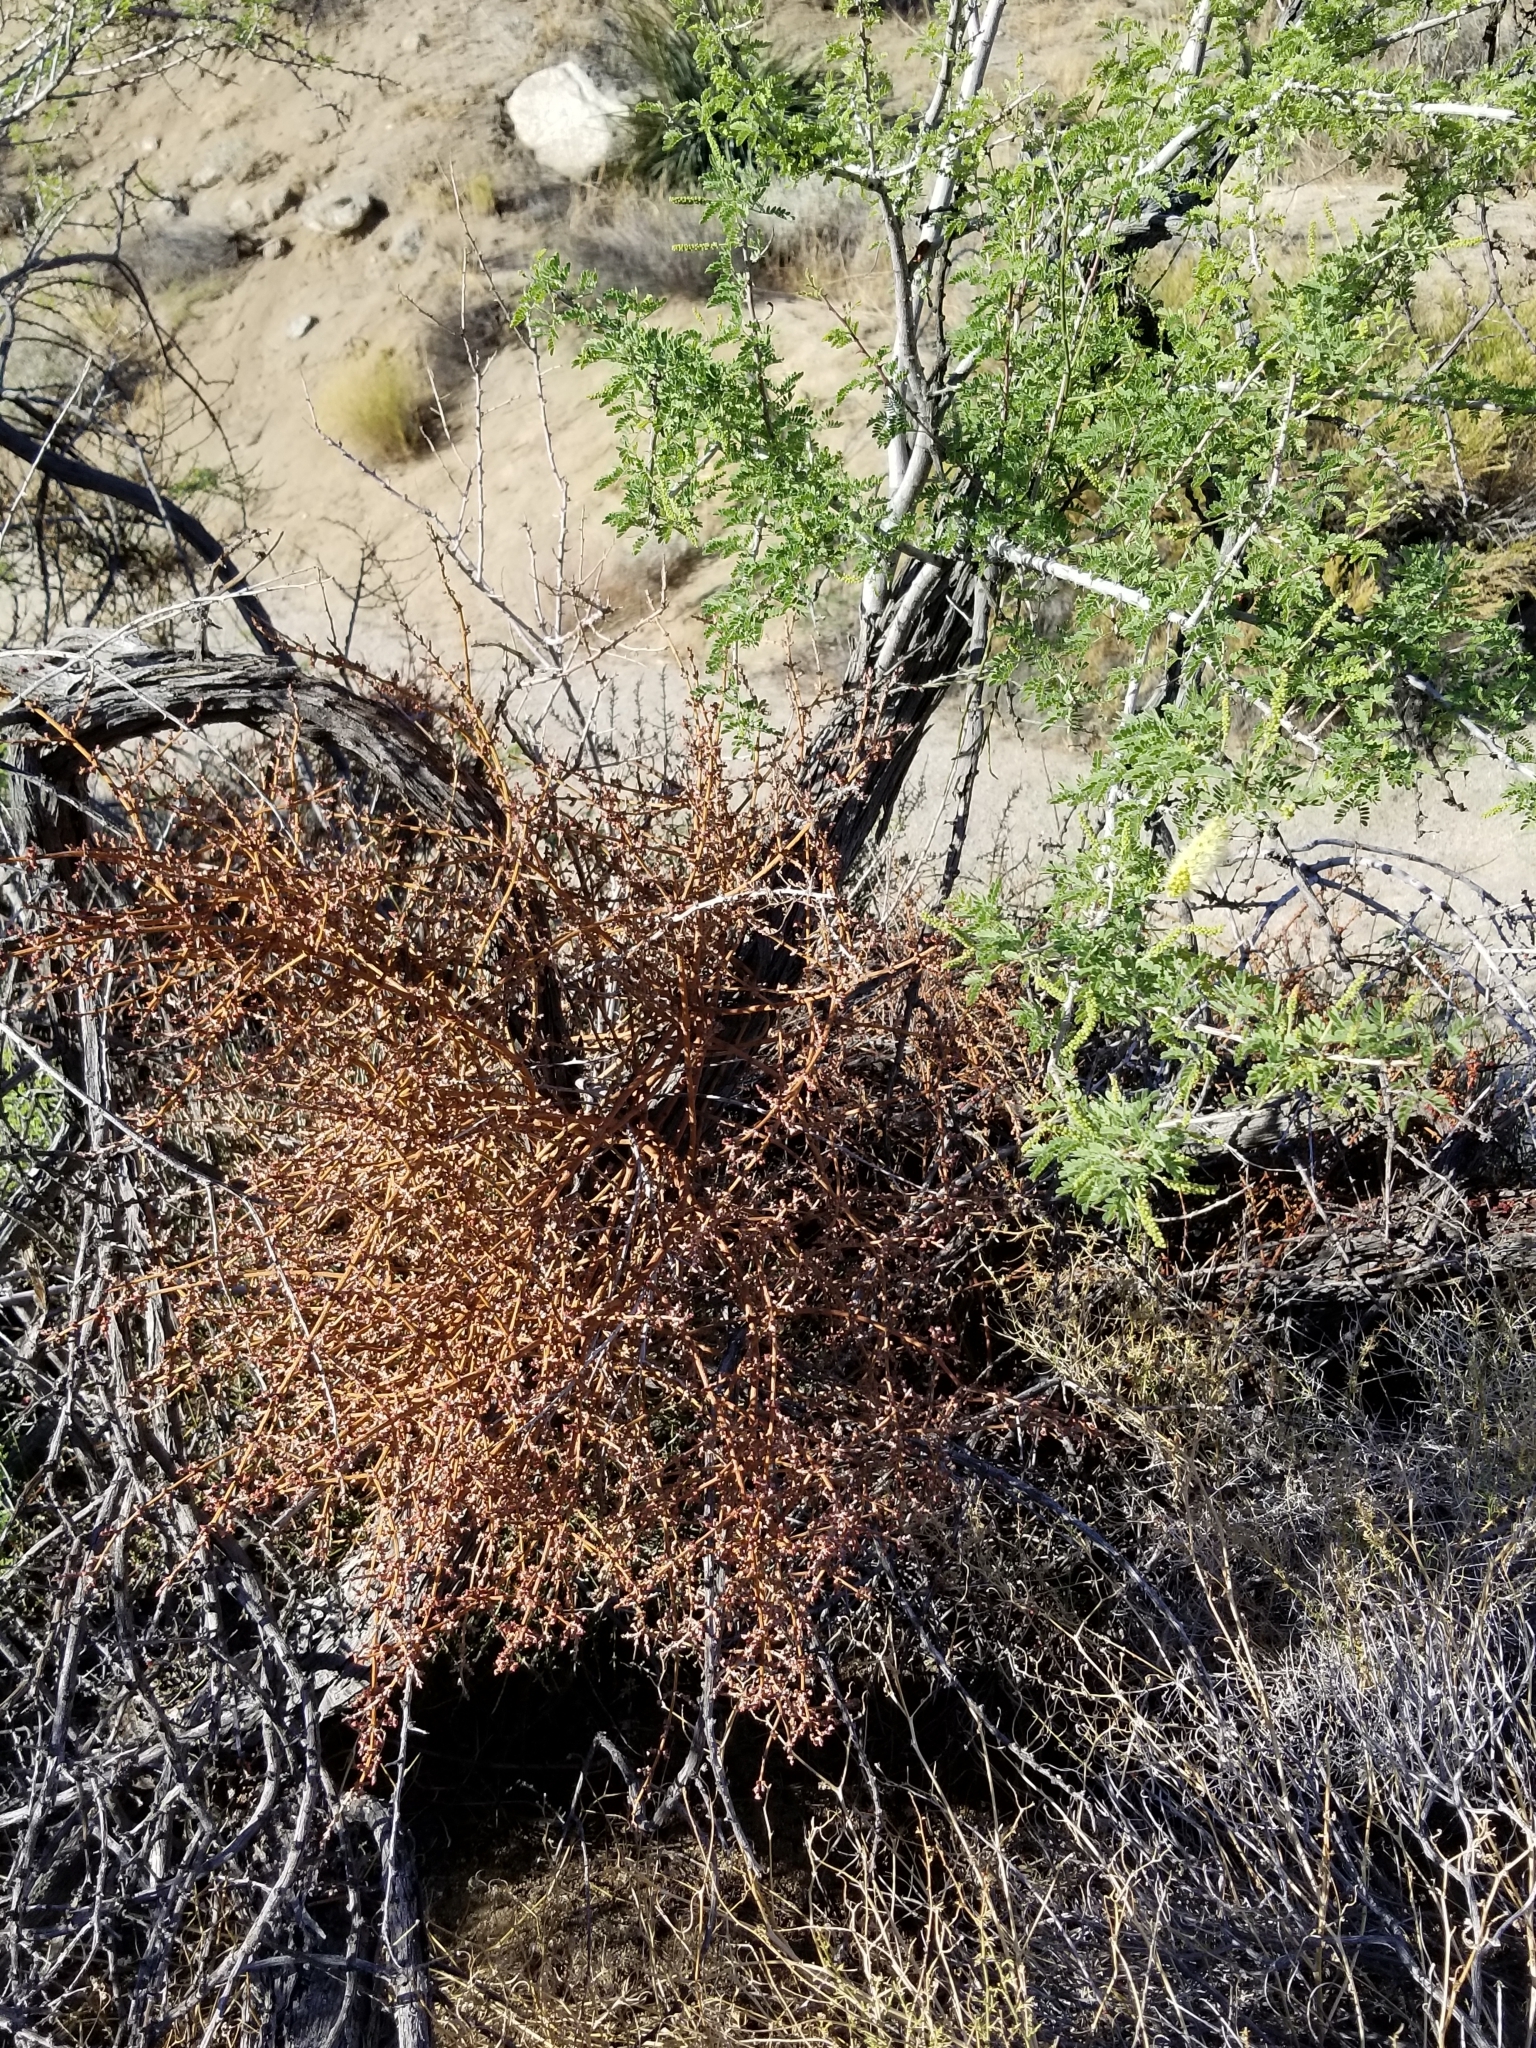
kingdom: Plantae
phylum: Tracheophyta
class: Magnoliopsida
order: Santalales
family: Viscaceae
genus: Phoradendron
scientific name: Phoradendron californicum
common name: Acacia mistletoe
